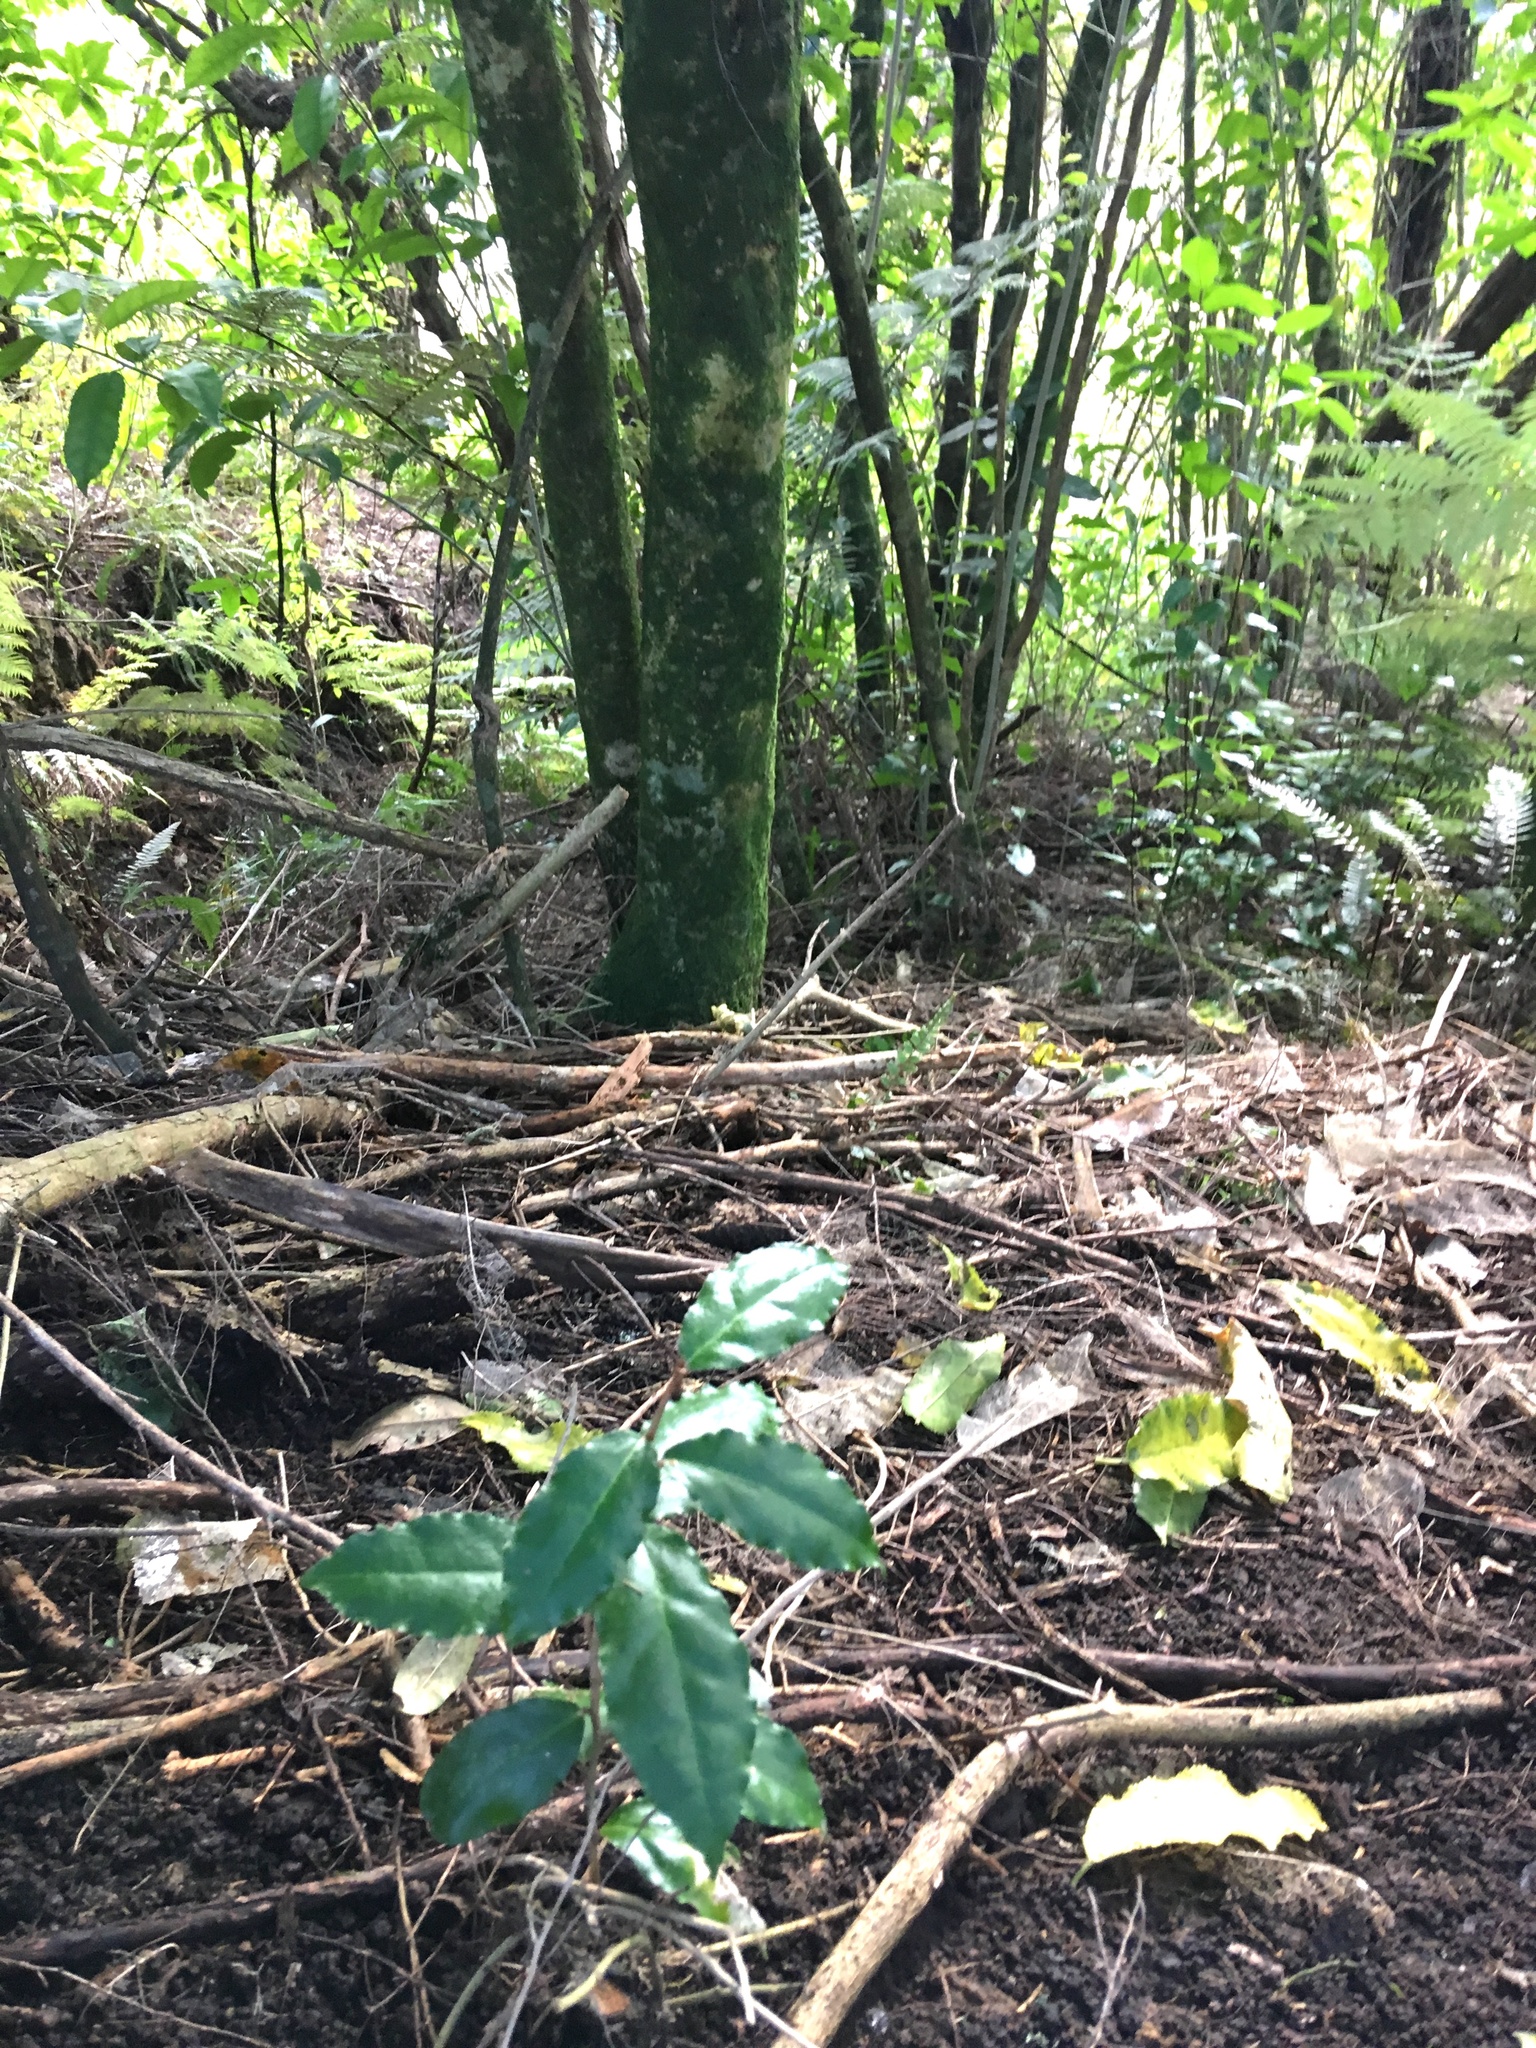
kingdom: Plantae
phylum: Tracheophyta
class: Magnoliopsida
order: Rosales
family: Elaeagnaceae
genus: Elaeagnus
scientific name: Elaeagnus reflexa
